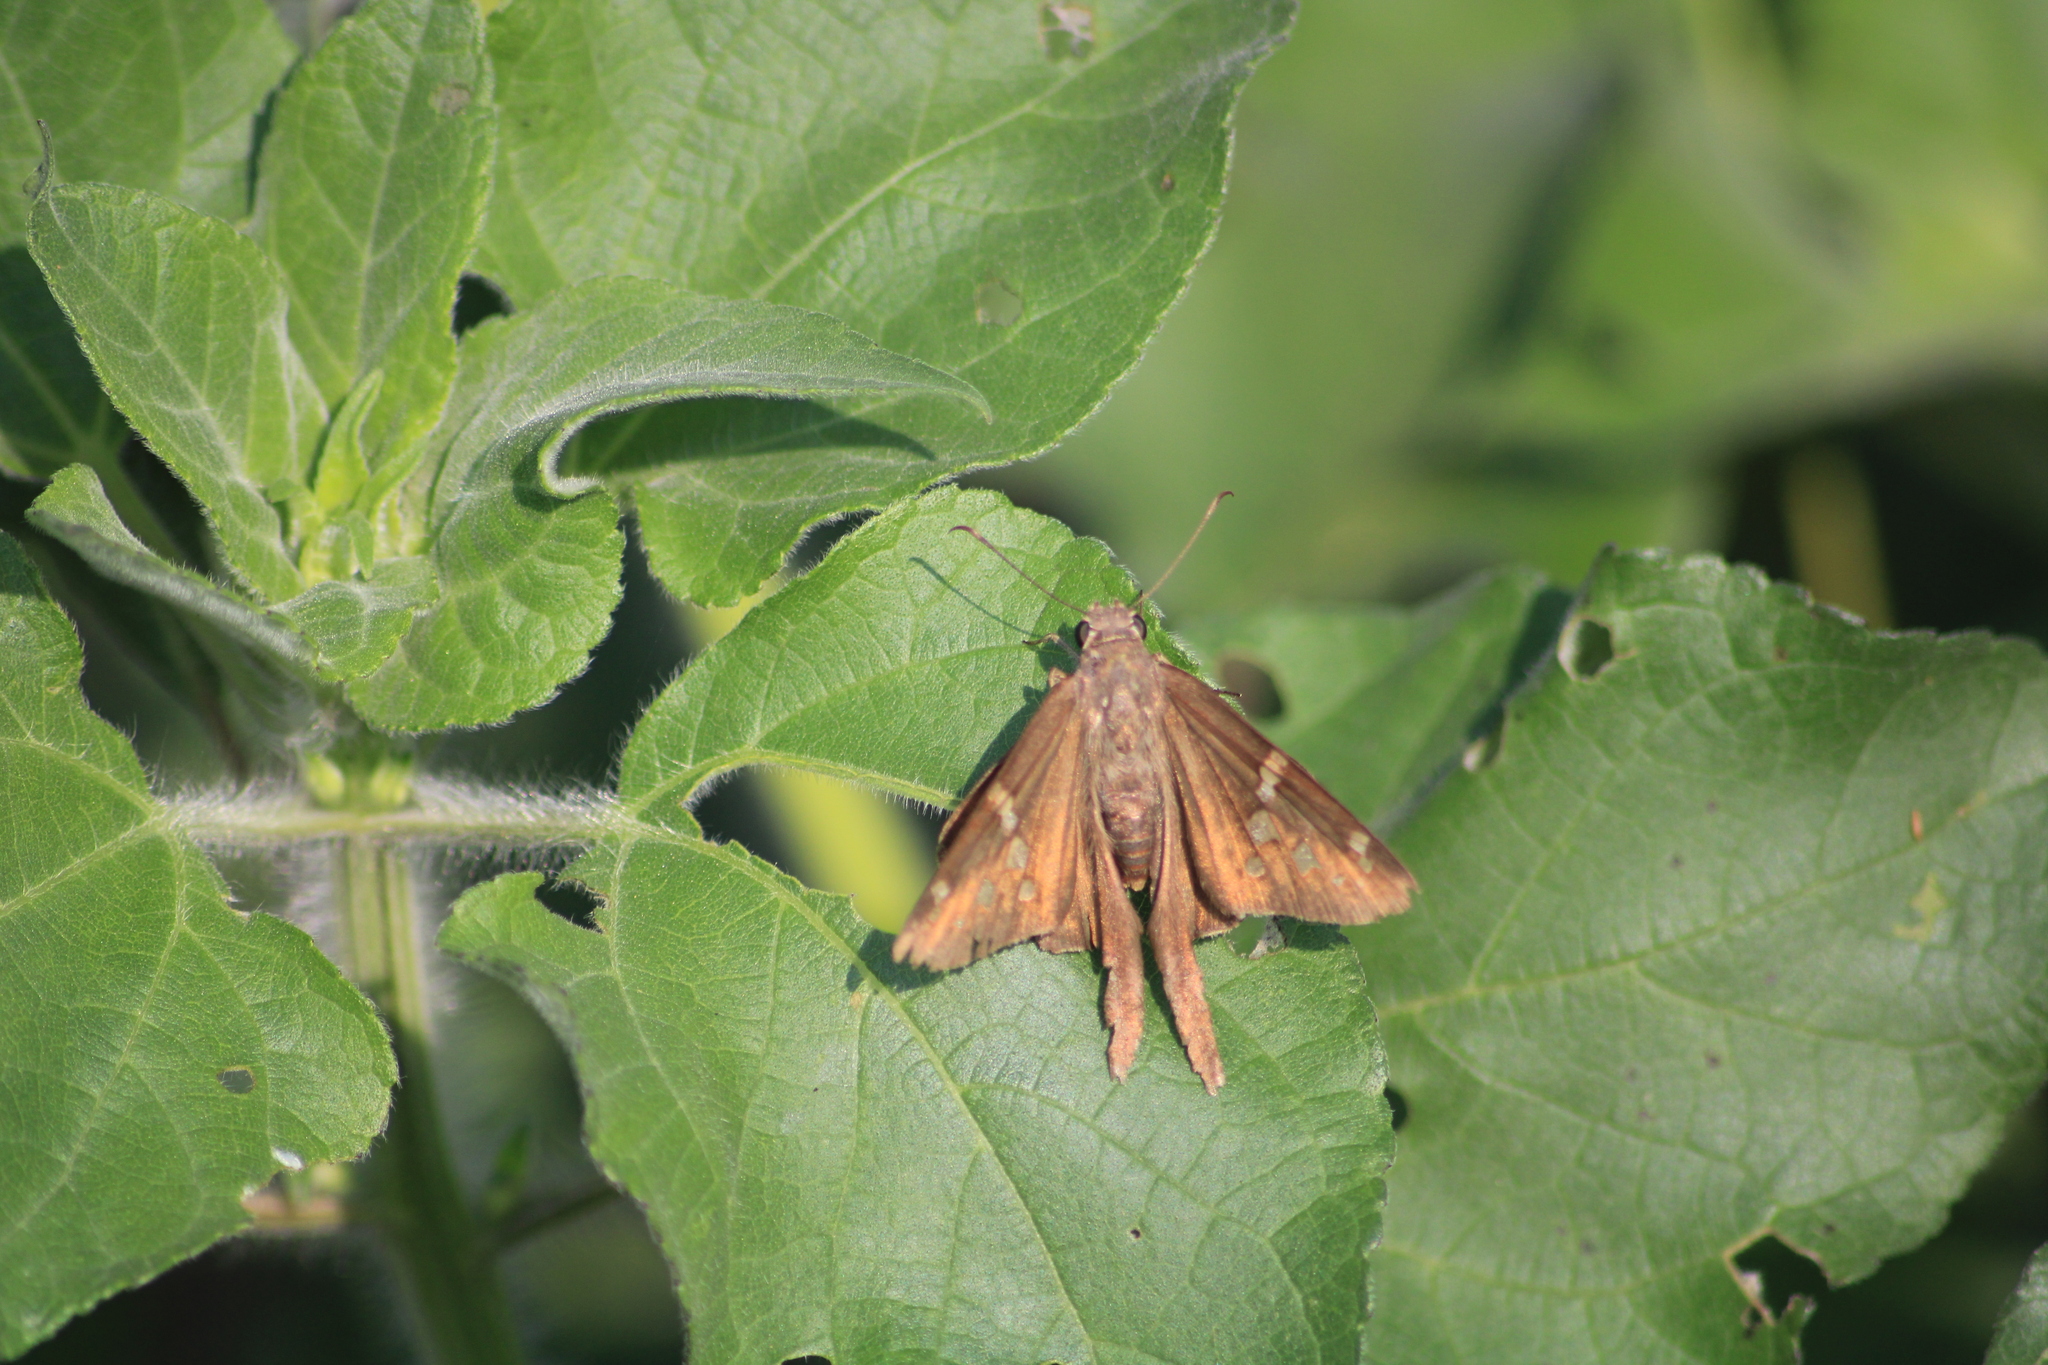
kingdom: Animalia
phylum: Arthropoda
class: Insecta
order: Lepidoptera
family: Hesperiidae
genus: Thorybes
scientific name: Thorybes
